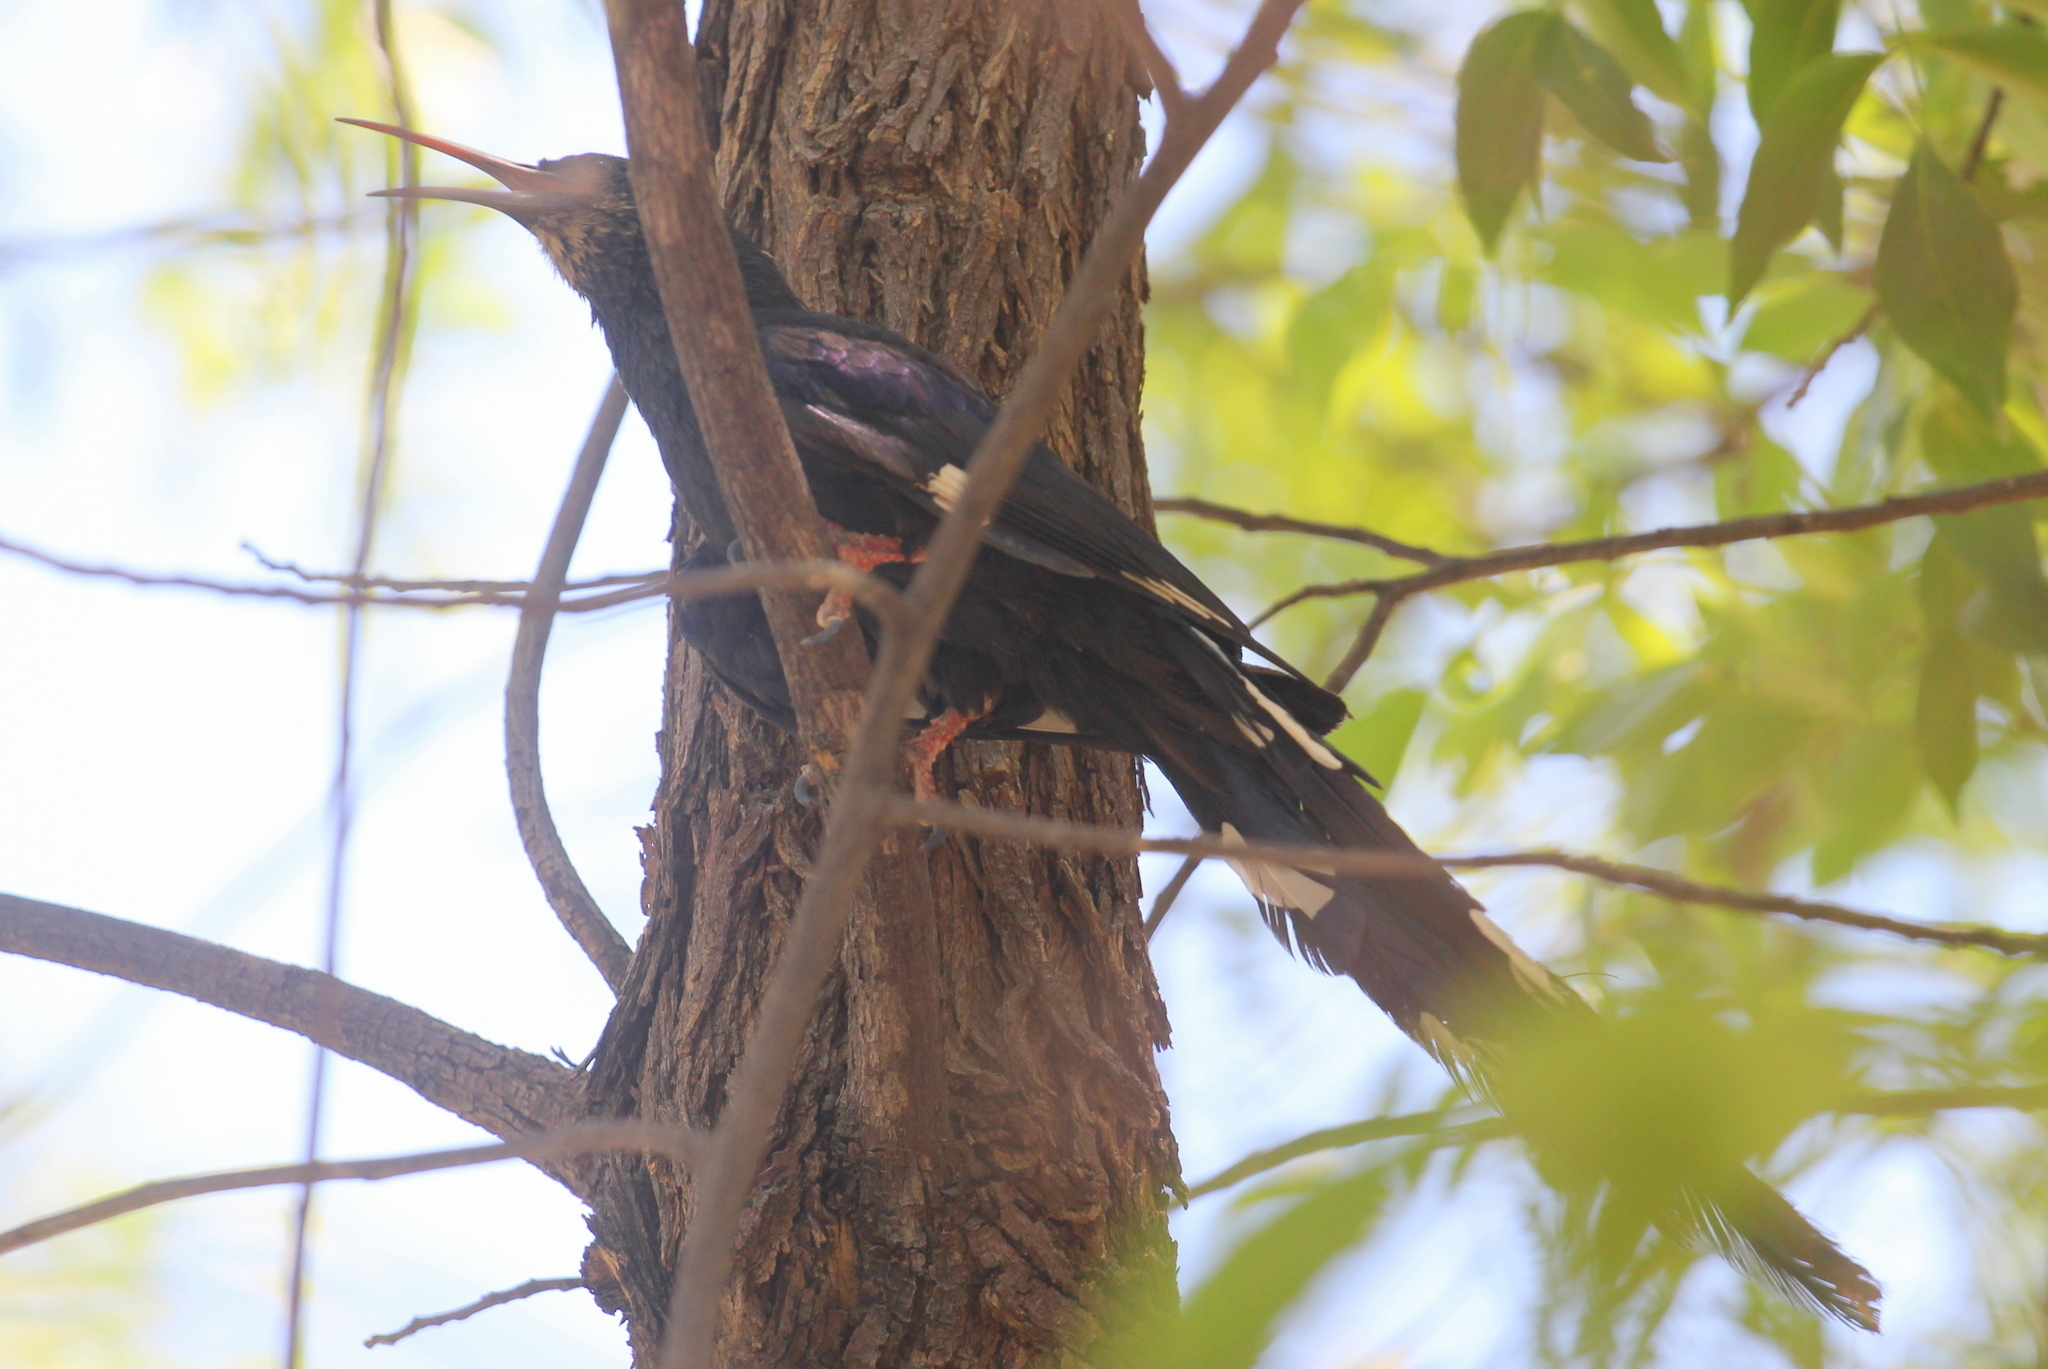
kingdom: Animalia
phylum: Chordata
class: Aves
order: Bucerotiformes
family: Phoeniculidae
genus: Phoeniculus
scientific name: Phoeniculus damarensis
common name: Violet woodhoopoe
